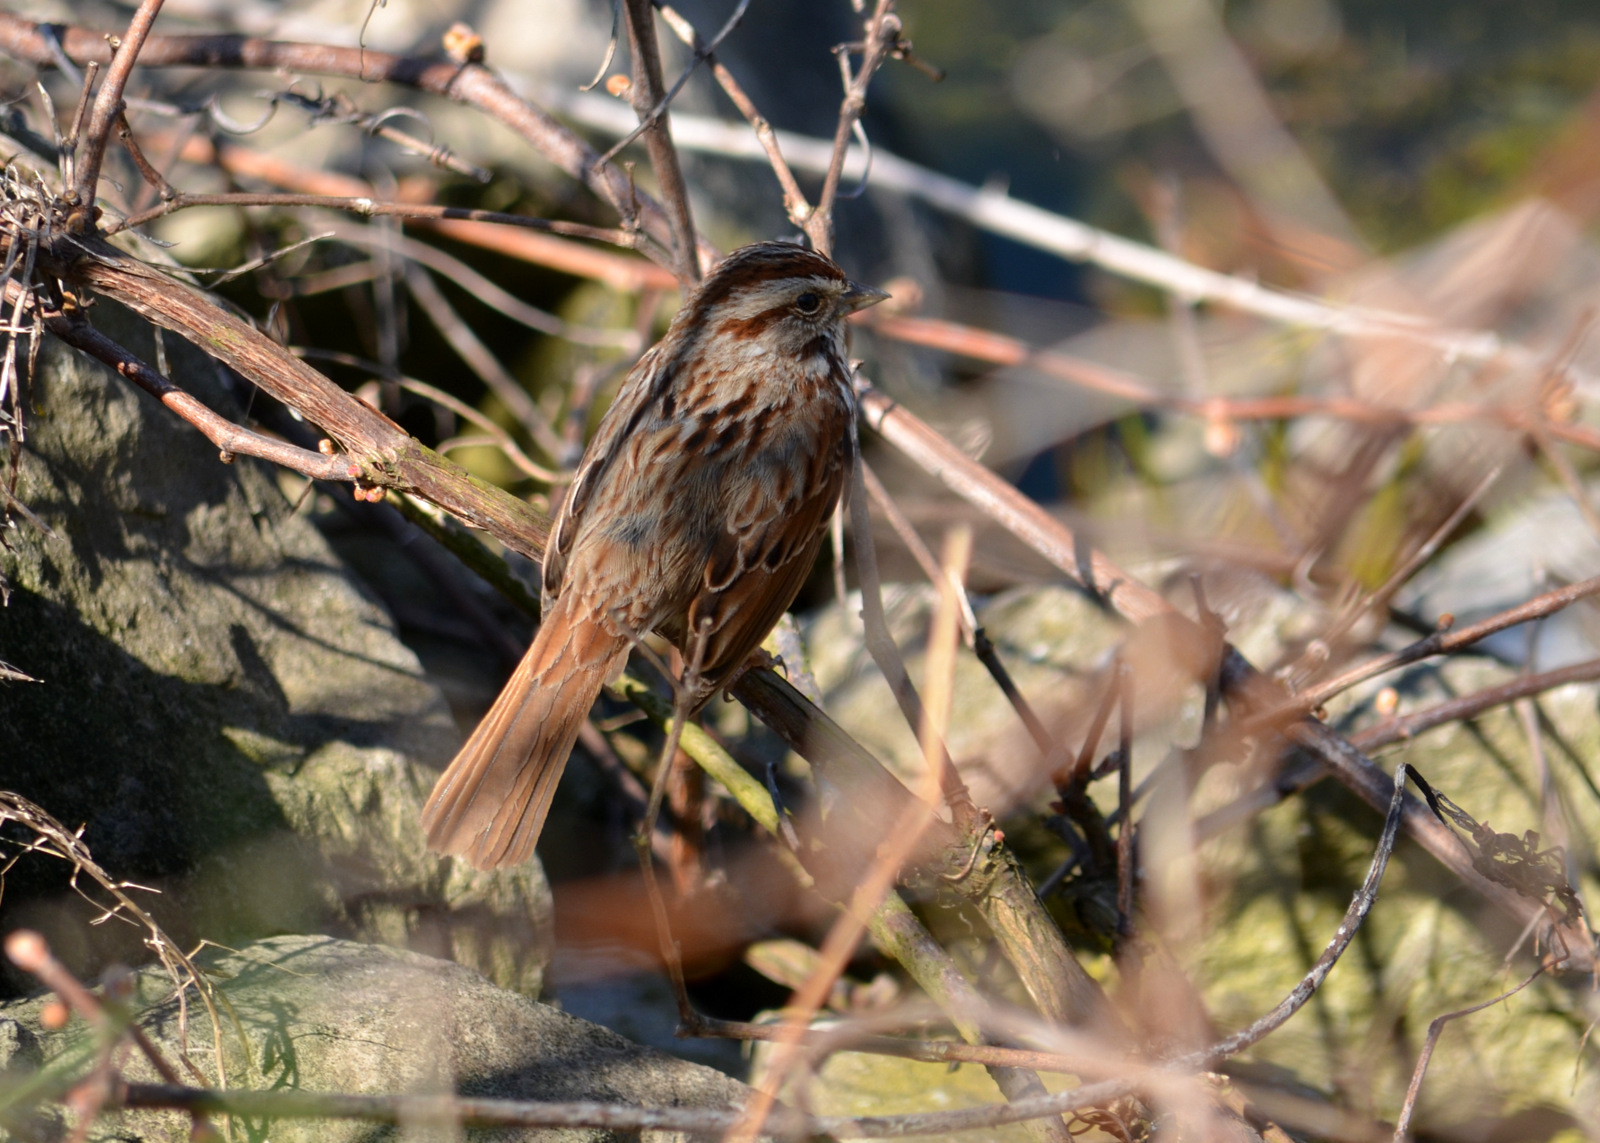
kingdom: Animalia
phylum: Chordata
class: Aves
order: Passeriformes
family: Passerellidae
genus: Melospiza
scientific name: Melospiza melodia
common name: Song sparrow
